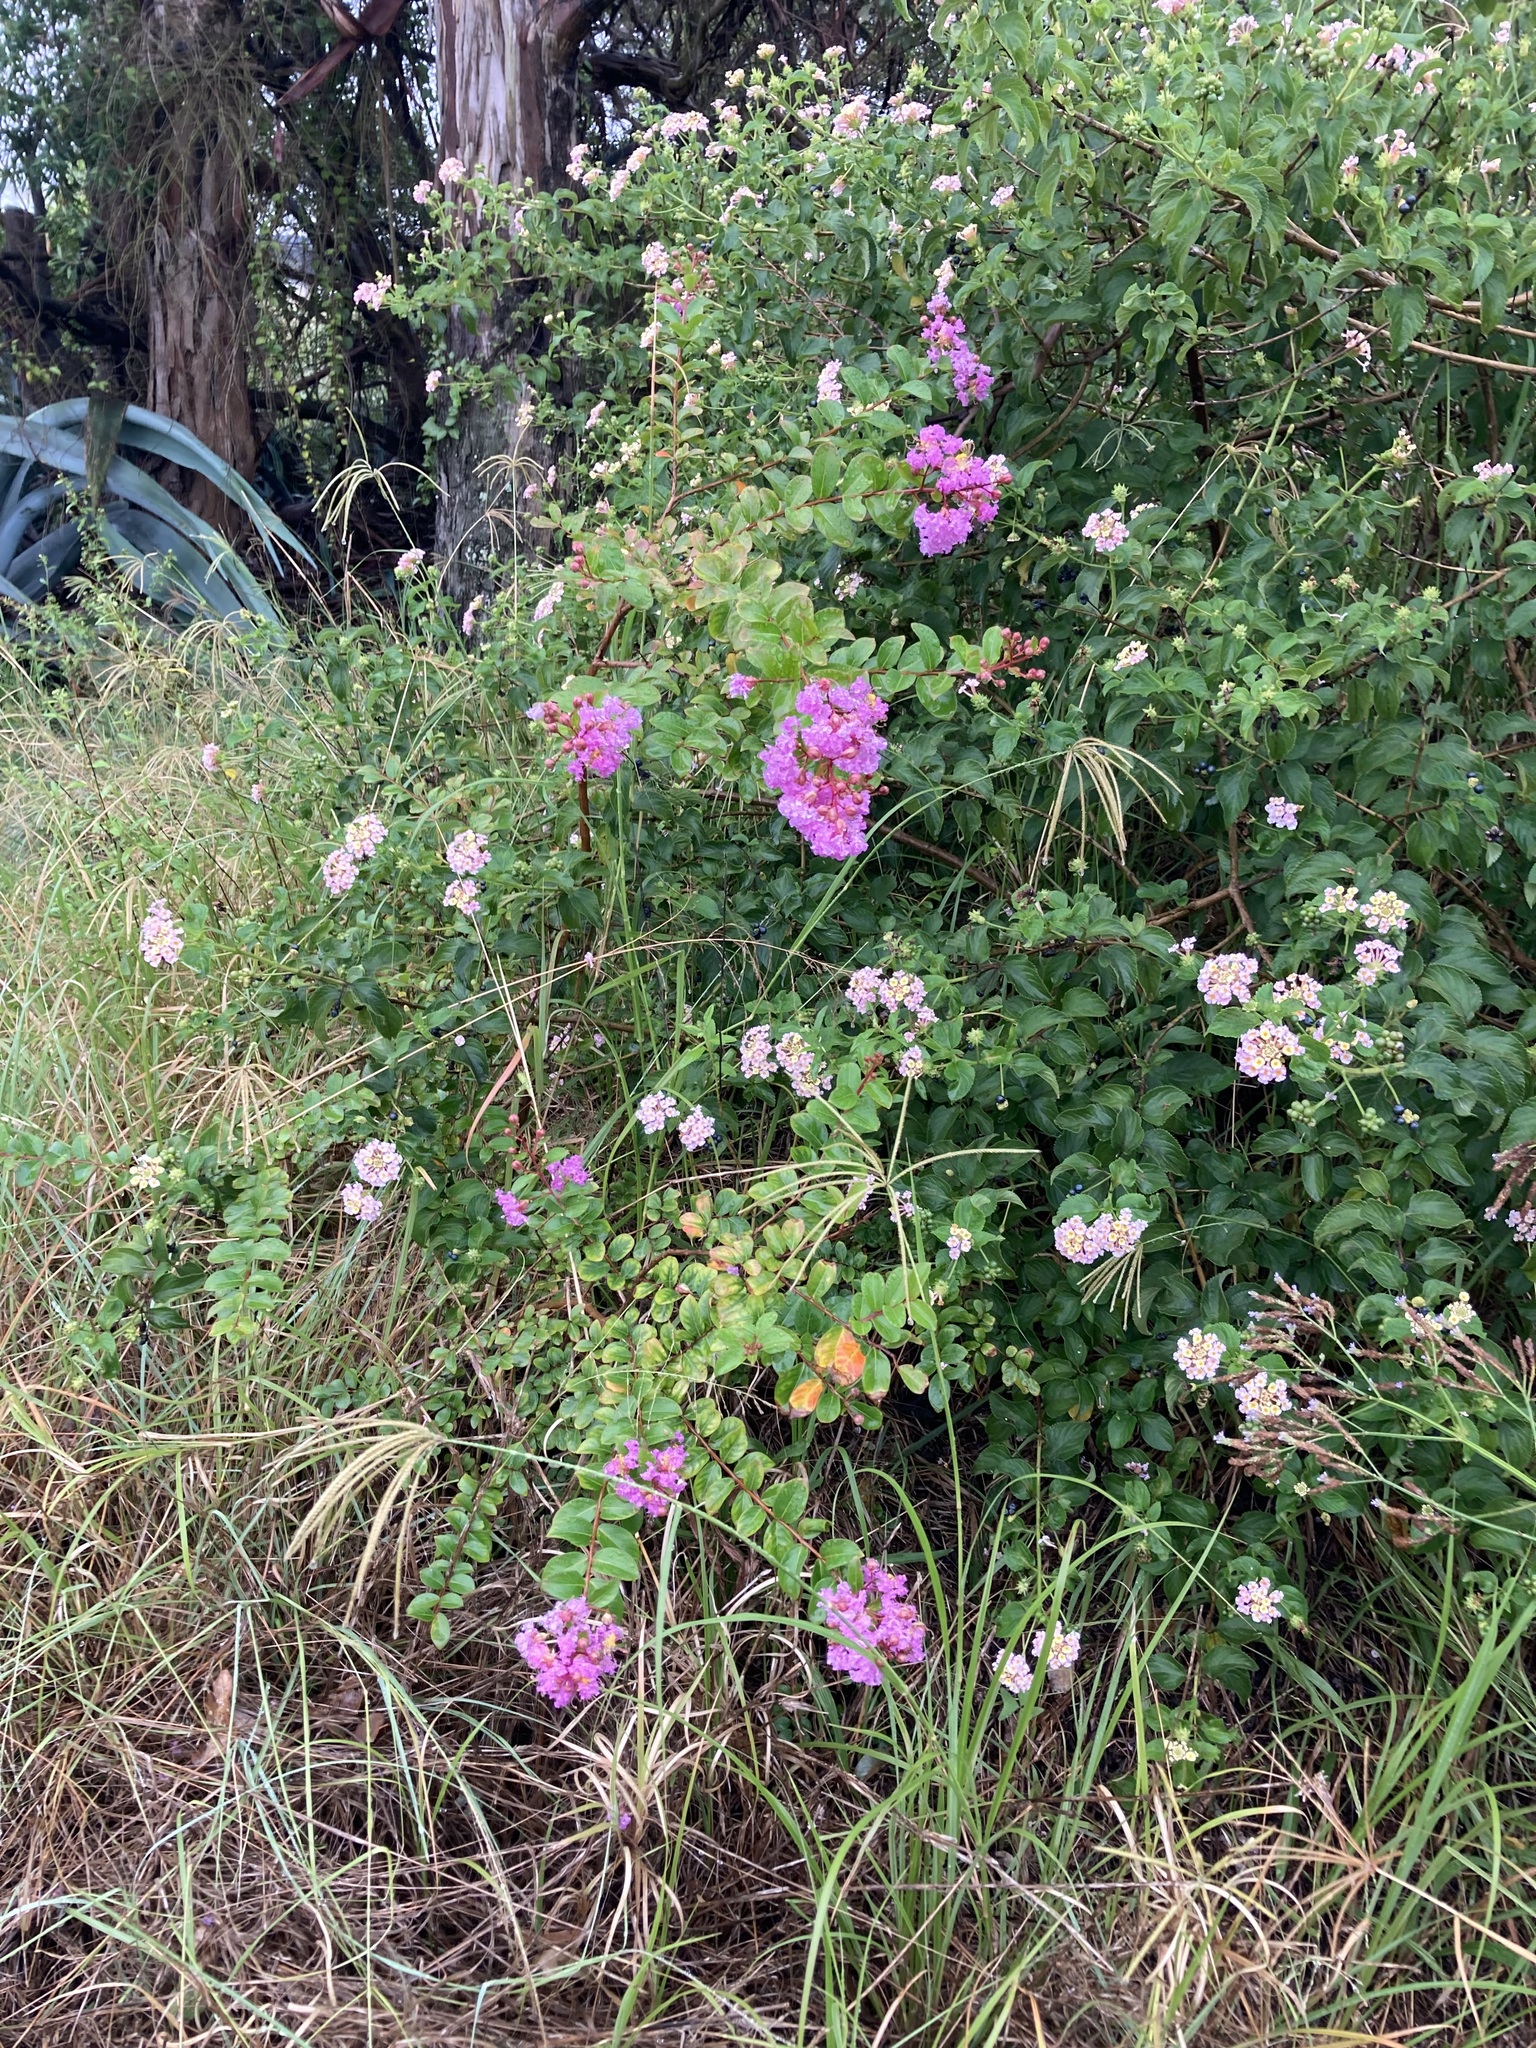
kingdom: Plantae
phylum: Tracheophyta
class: Magnoliopsida
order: Myrtales
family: Lythraceae
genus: Lagerstroemia
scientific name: Lagerstroemia indica
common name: Crape-myrtle
